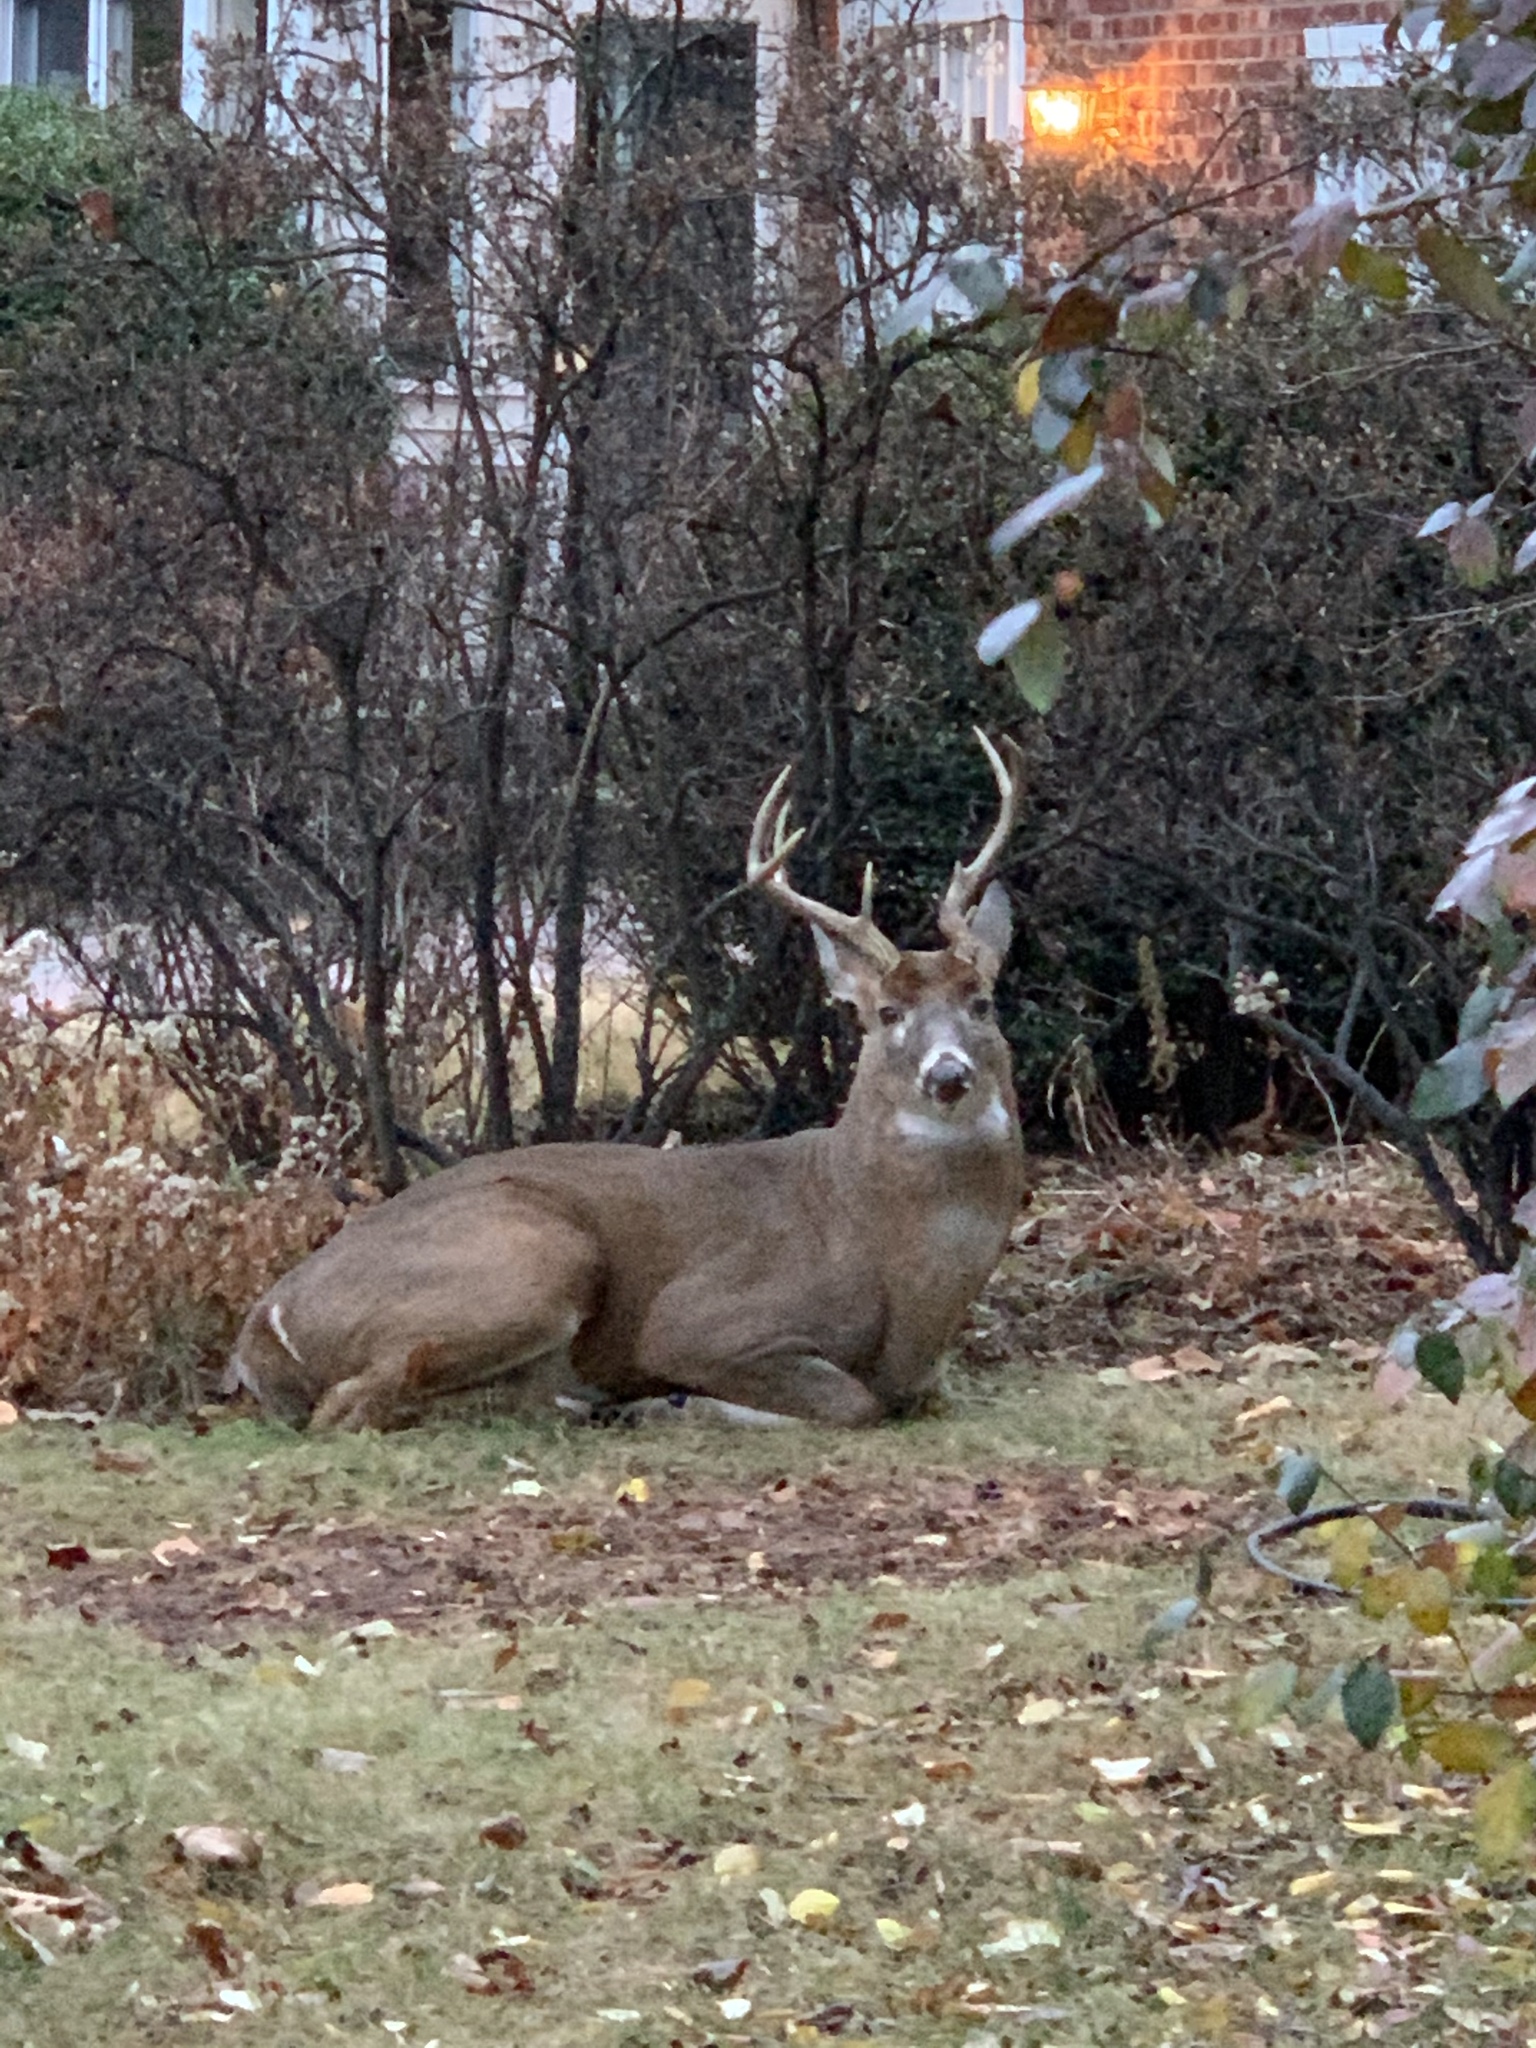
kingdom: Animalia
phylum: Chordata
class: Mammalia
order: Artiodactyla
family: Cervidae
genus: Odocoileus
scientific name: Odocoileus virginianus
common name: White-tailed deer
